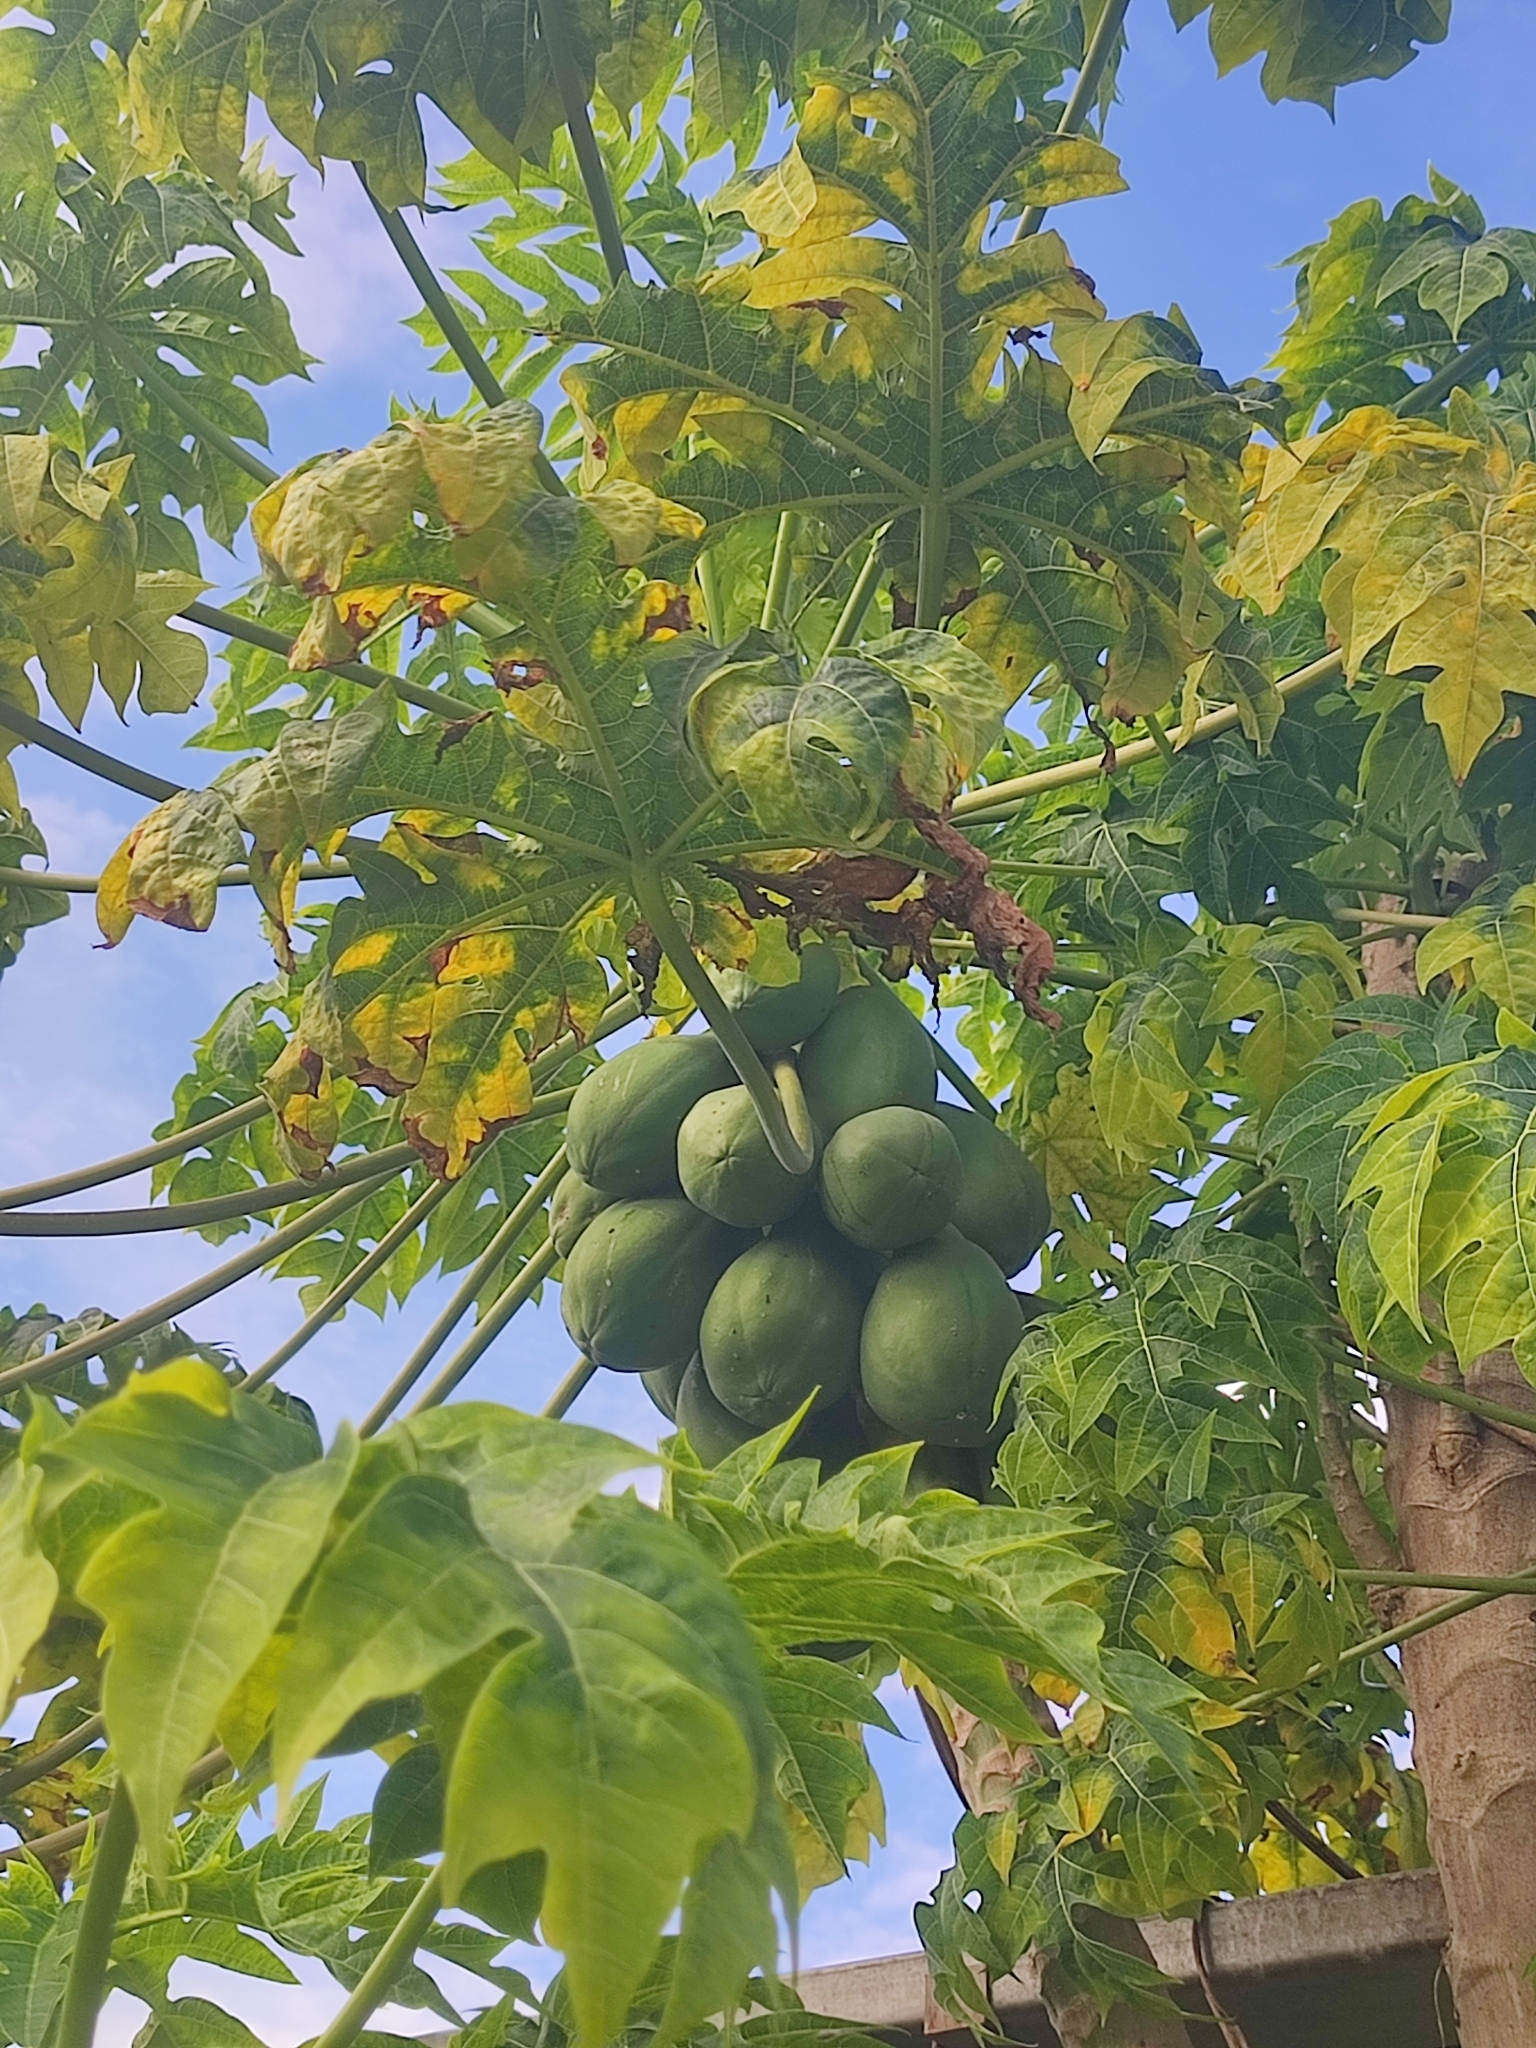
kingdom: Plantae
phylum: Tracheophyta
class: Magnoliopsida
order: Brassicales
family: Caricaceae
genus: Carica
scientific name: Carica papaya
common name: Papaya
